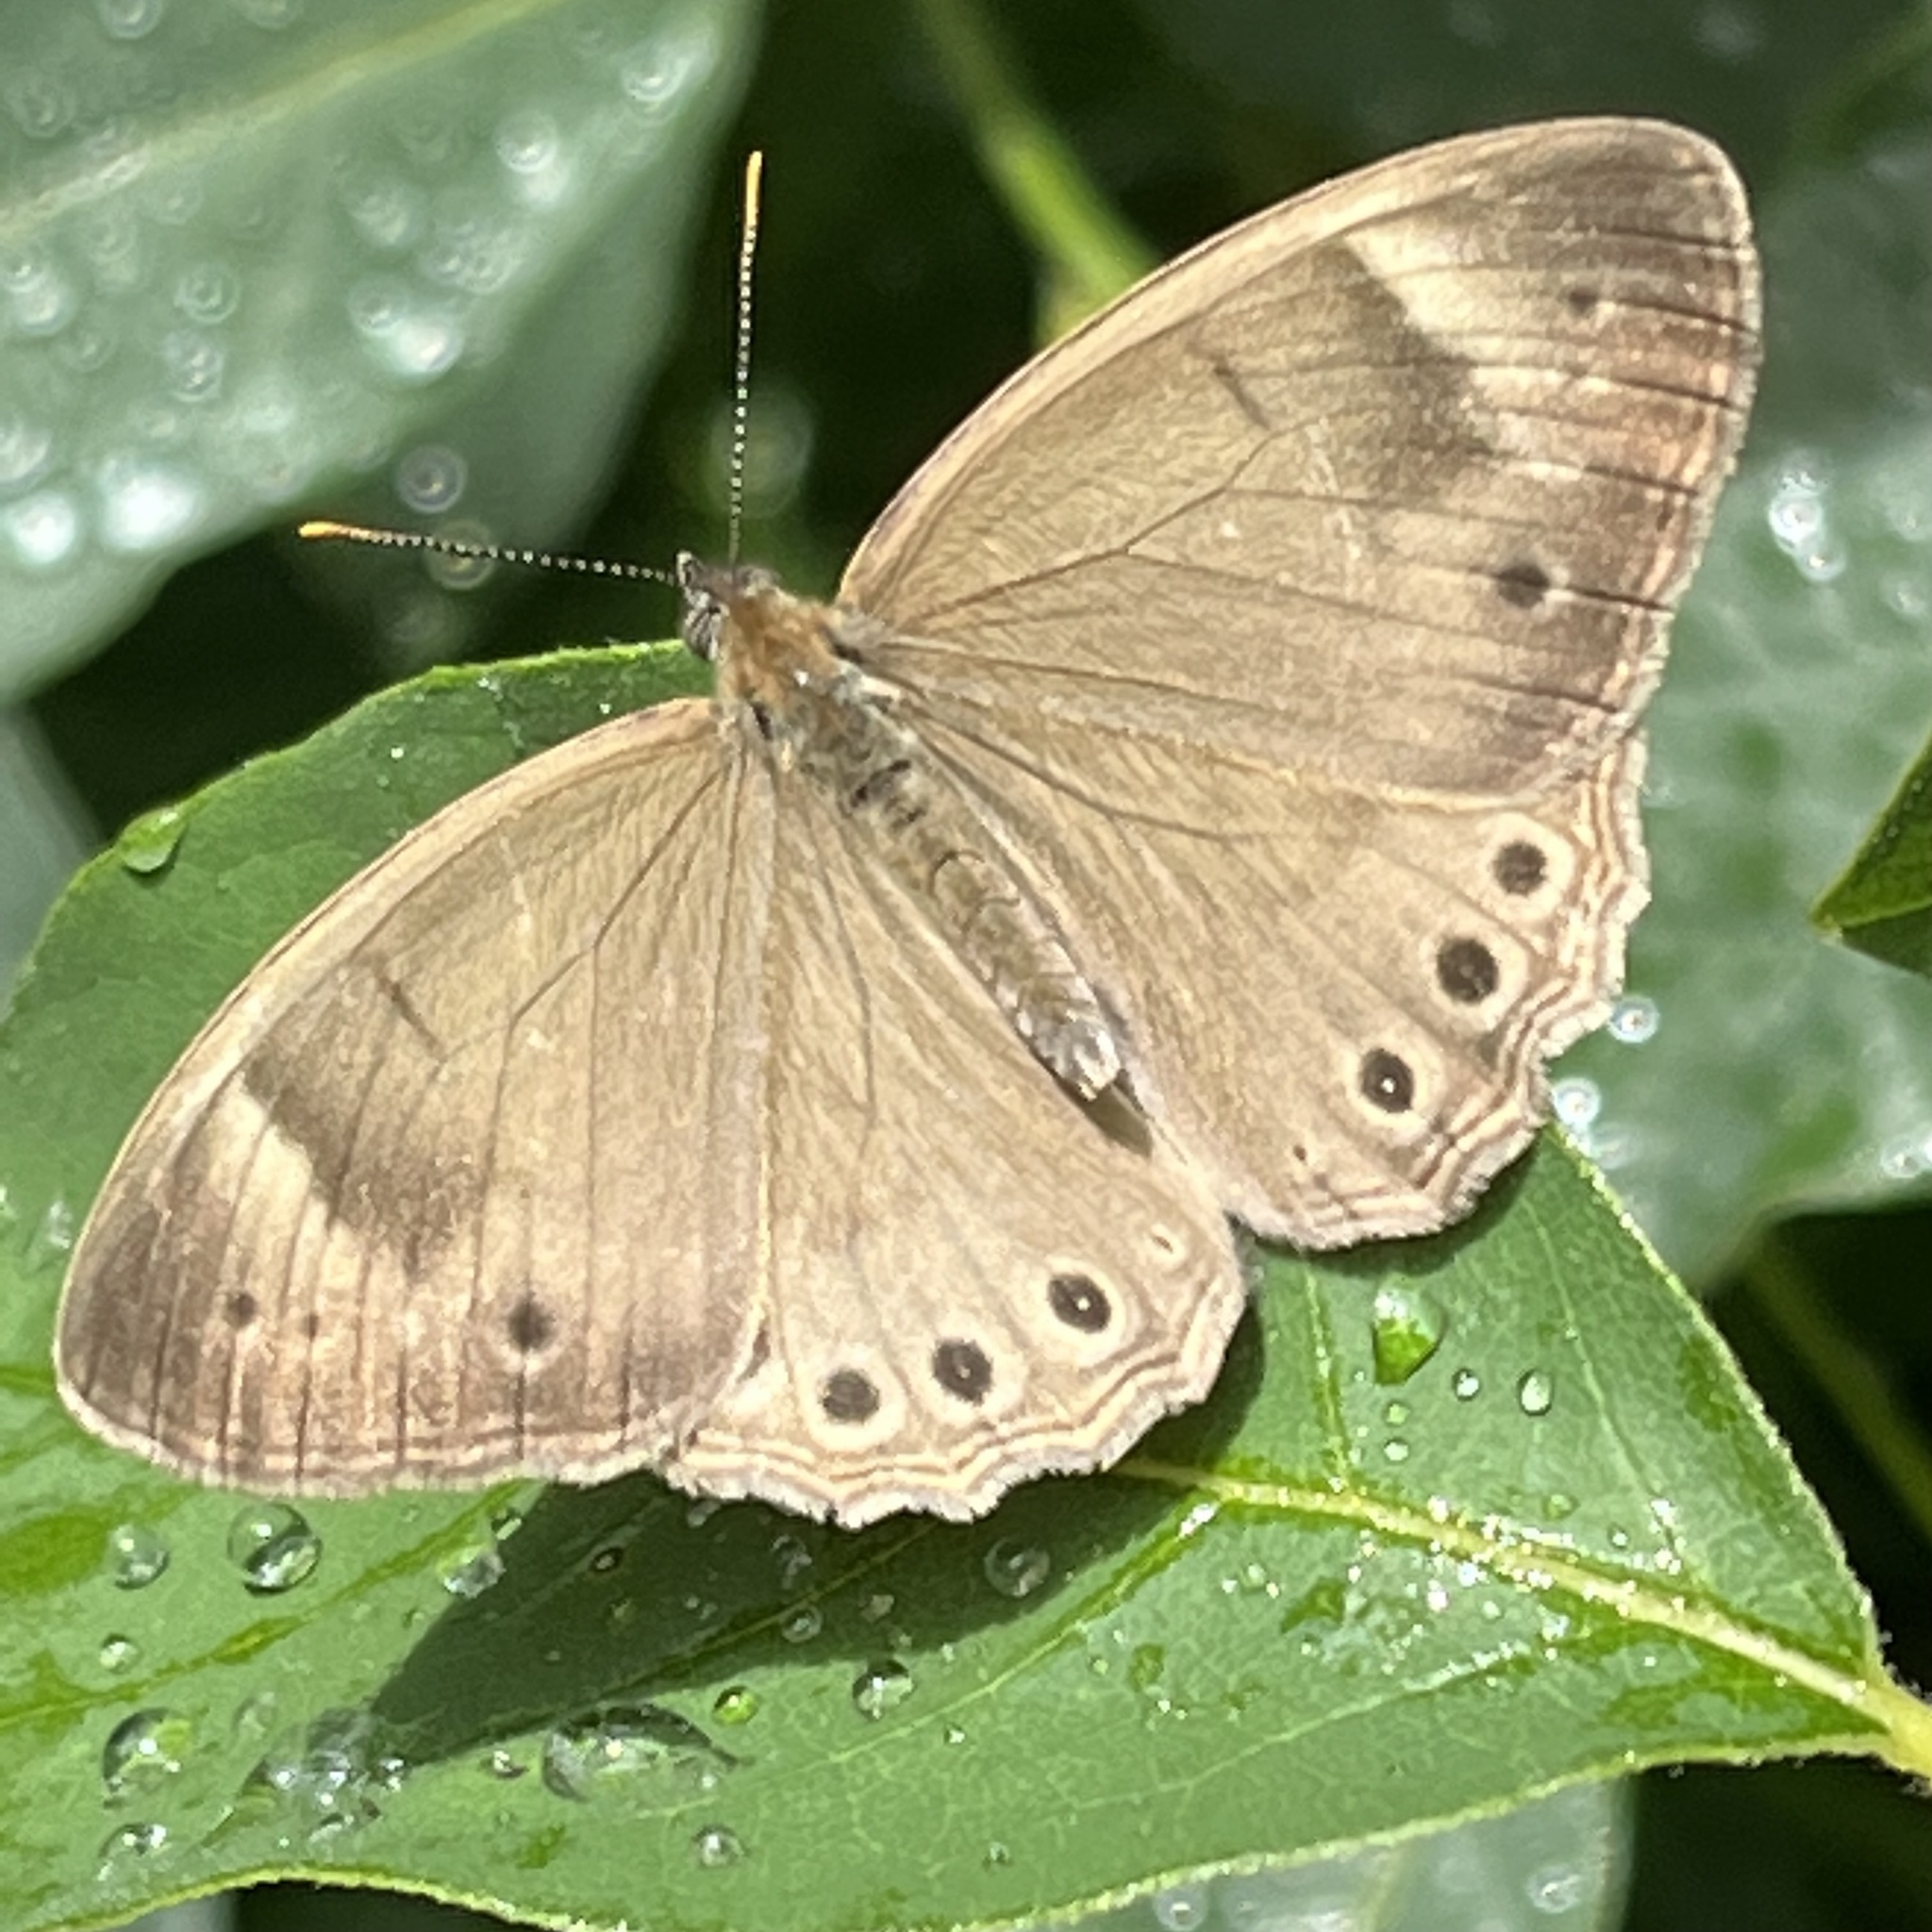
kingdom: Animalia
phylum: Arthropoda
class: Insecta
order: Lepidoptera
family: Nymphalidae
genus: Lethe
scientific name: Lethe eurydice
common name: Eyed brown
